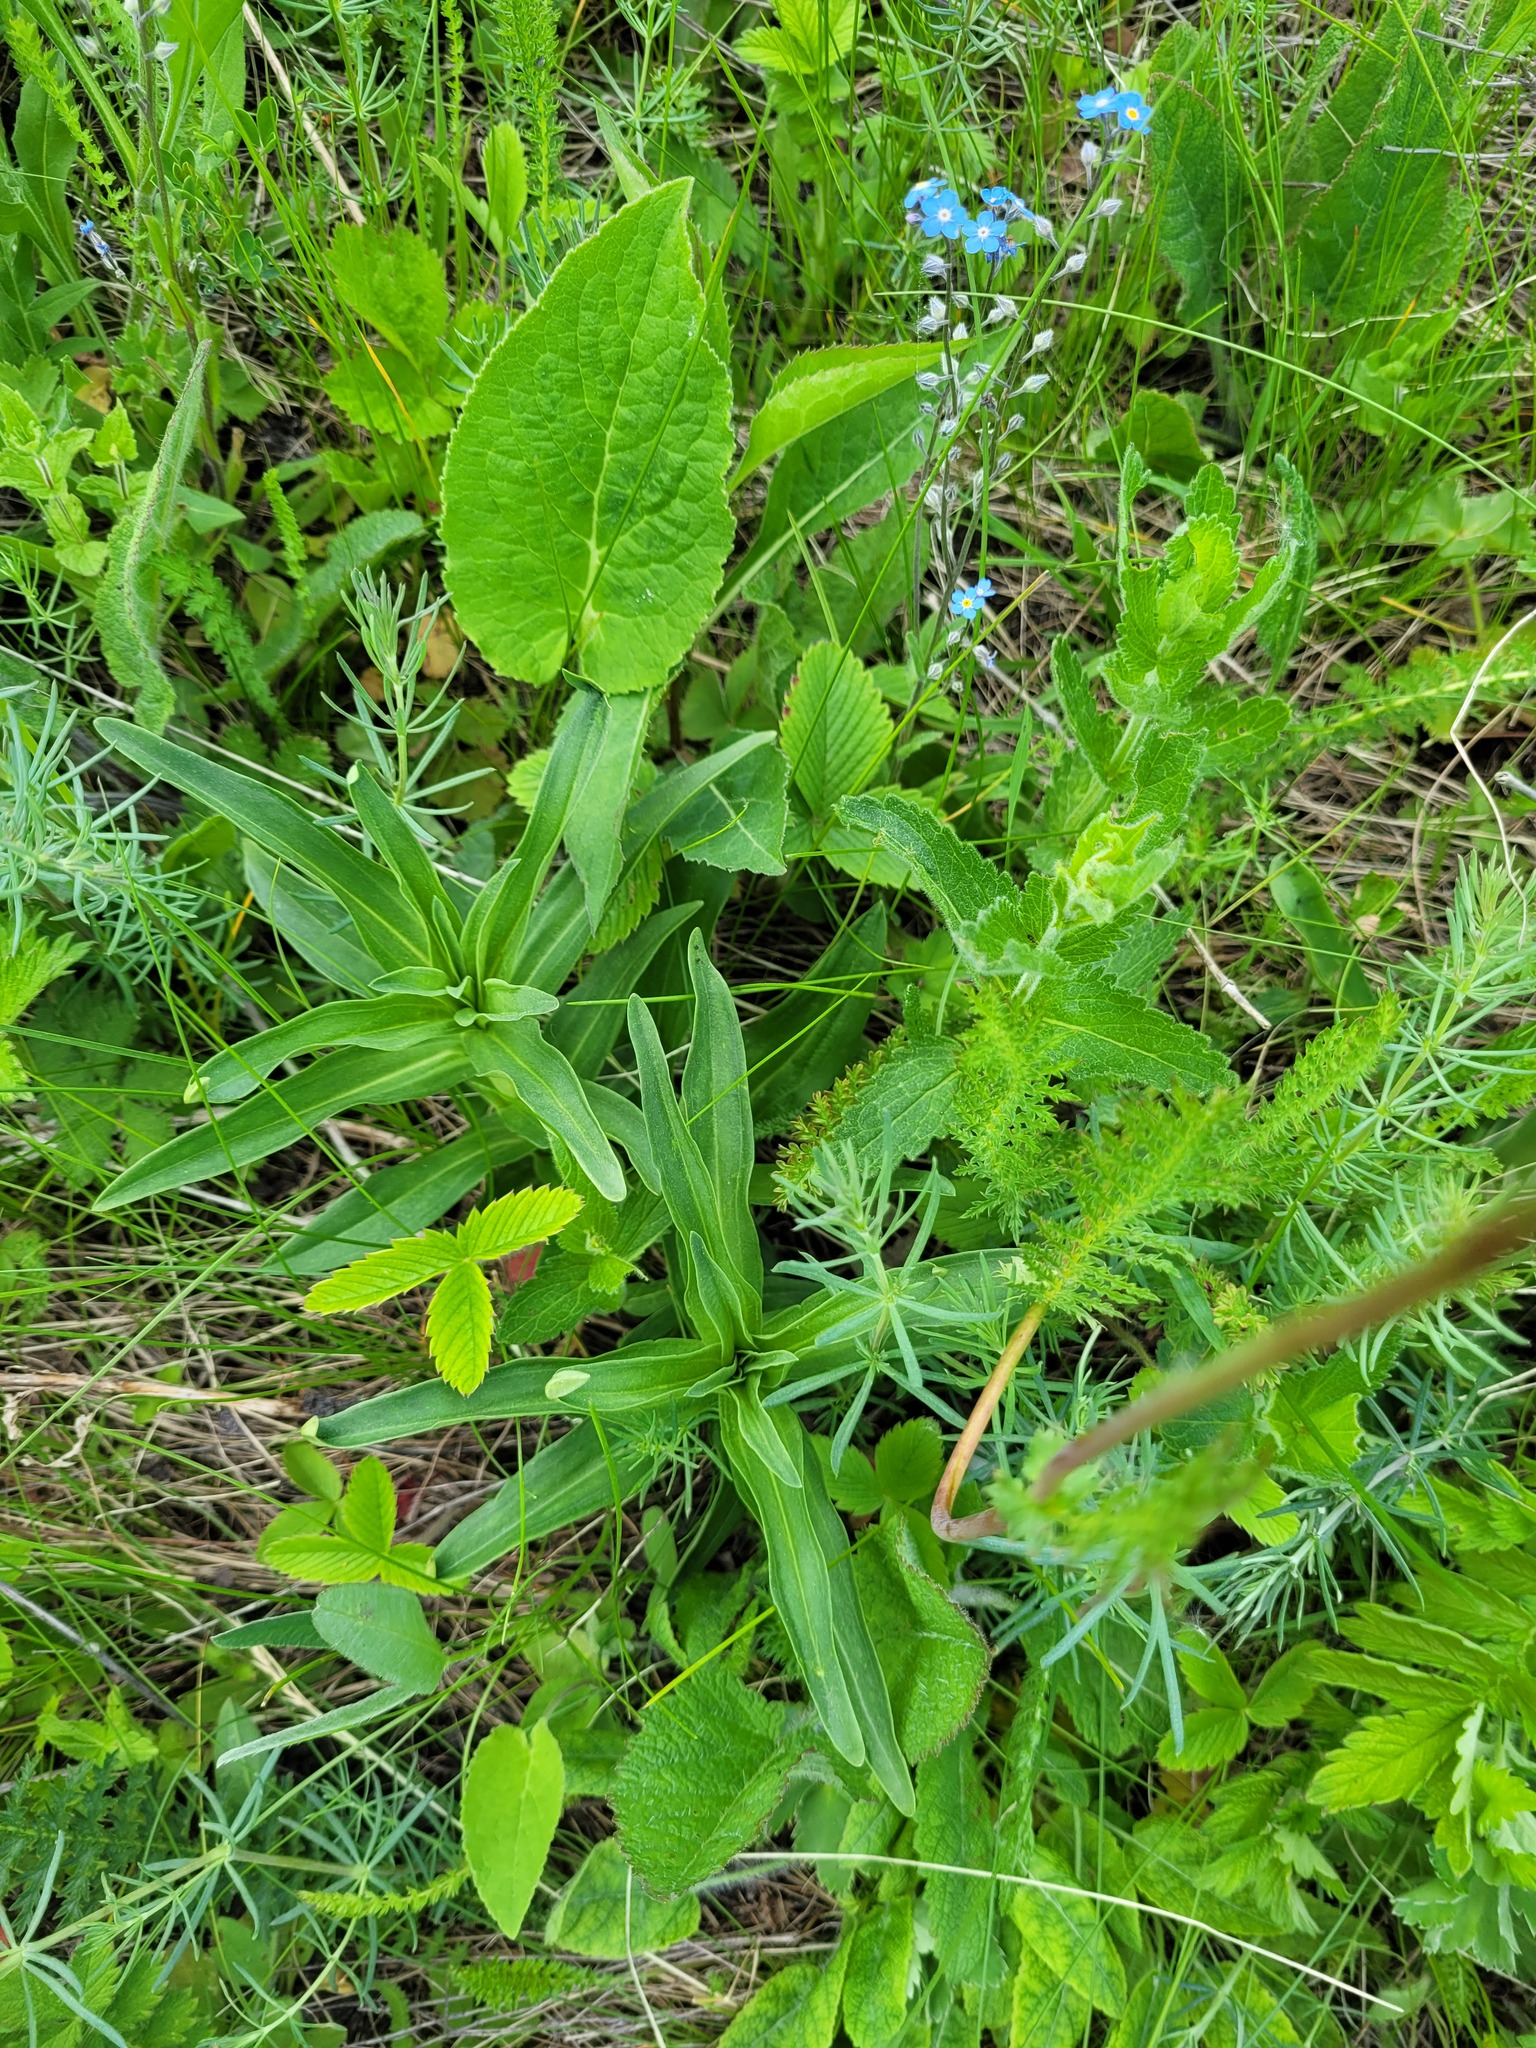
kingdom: Plantae
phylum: Tracheophyta
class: Magnoliopsida
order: Gentianales
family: Gentianaceae
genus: Gentiana
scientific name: Gentiana cruciata
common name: Cross gentian
